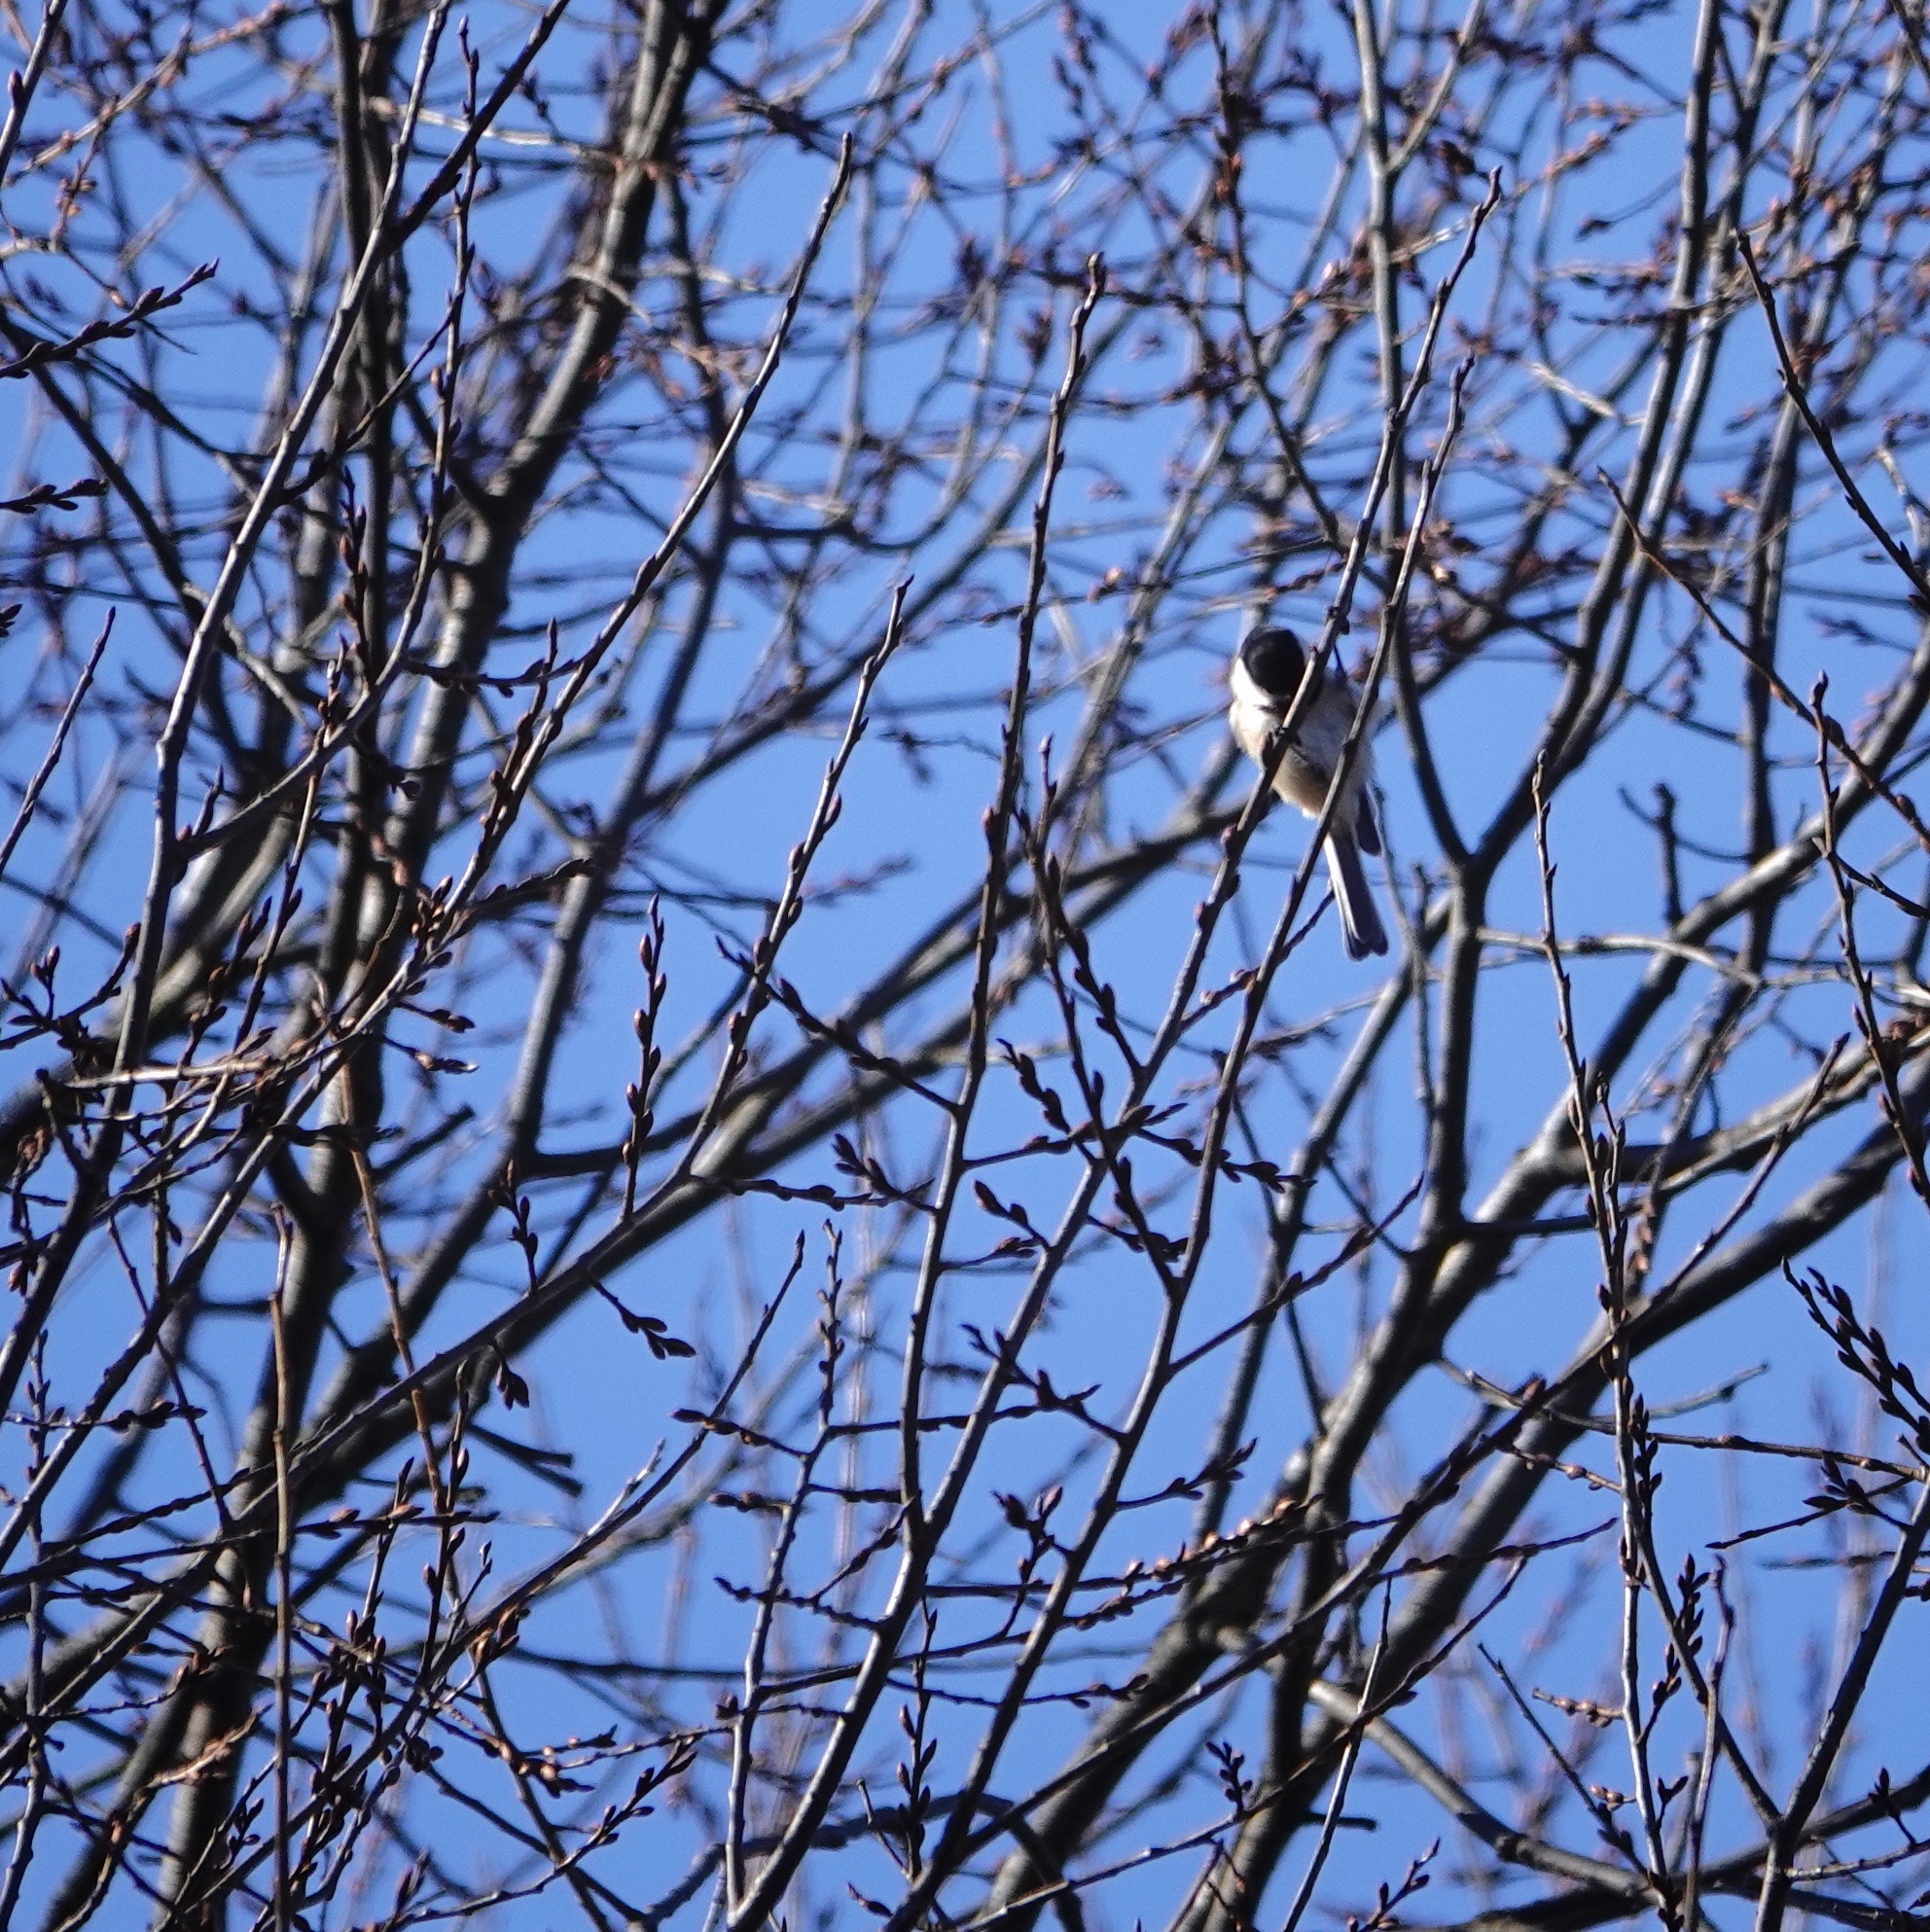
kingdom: Animalia
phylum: Chordata
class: Aves
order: Passeriformes
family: Paridae
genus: Poecile
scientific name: Poecile atricapillus
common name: Black-capped chickadee
